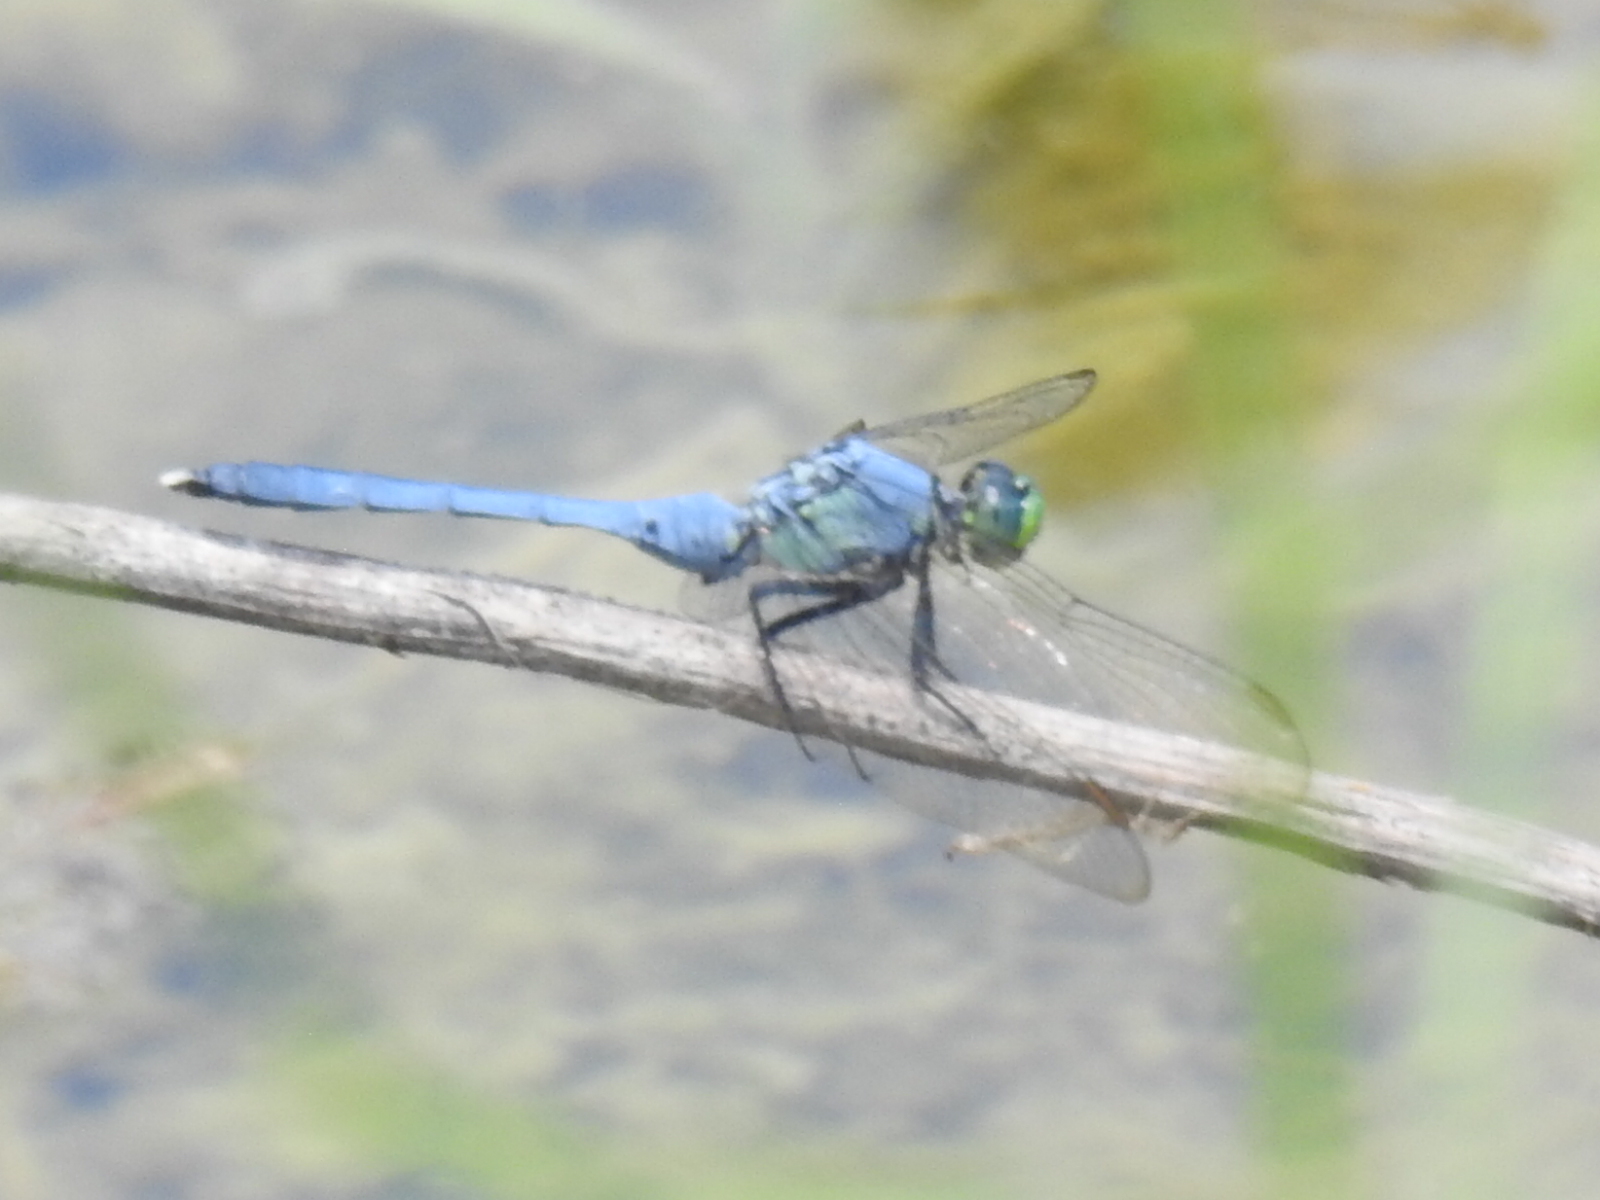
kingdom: Animalia
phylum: Arthropoda
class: Insecta
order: Odonata
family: Libellulidae
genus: Erythemis
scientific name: Erythemis simplicicollis
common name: Eastern pondhawk
